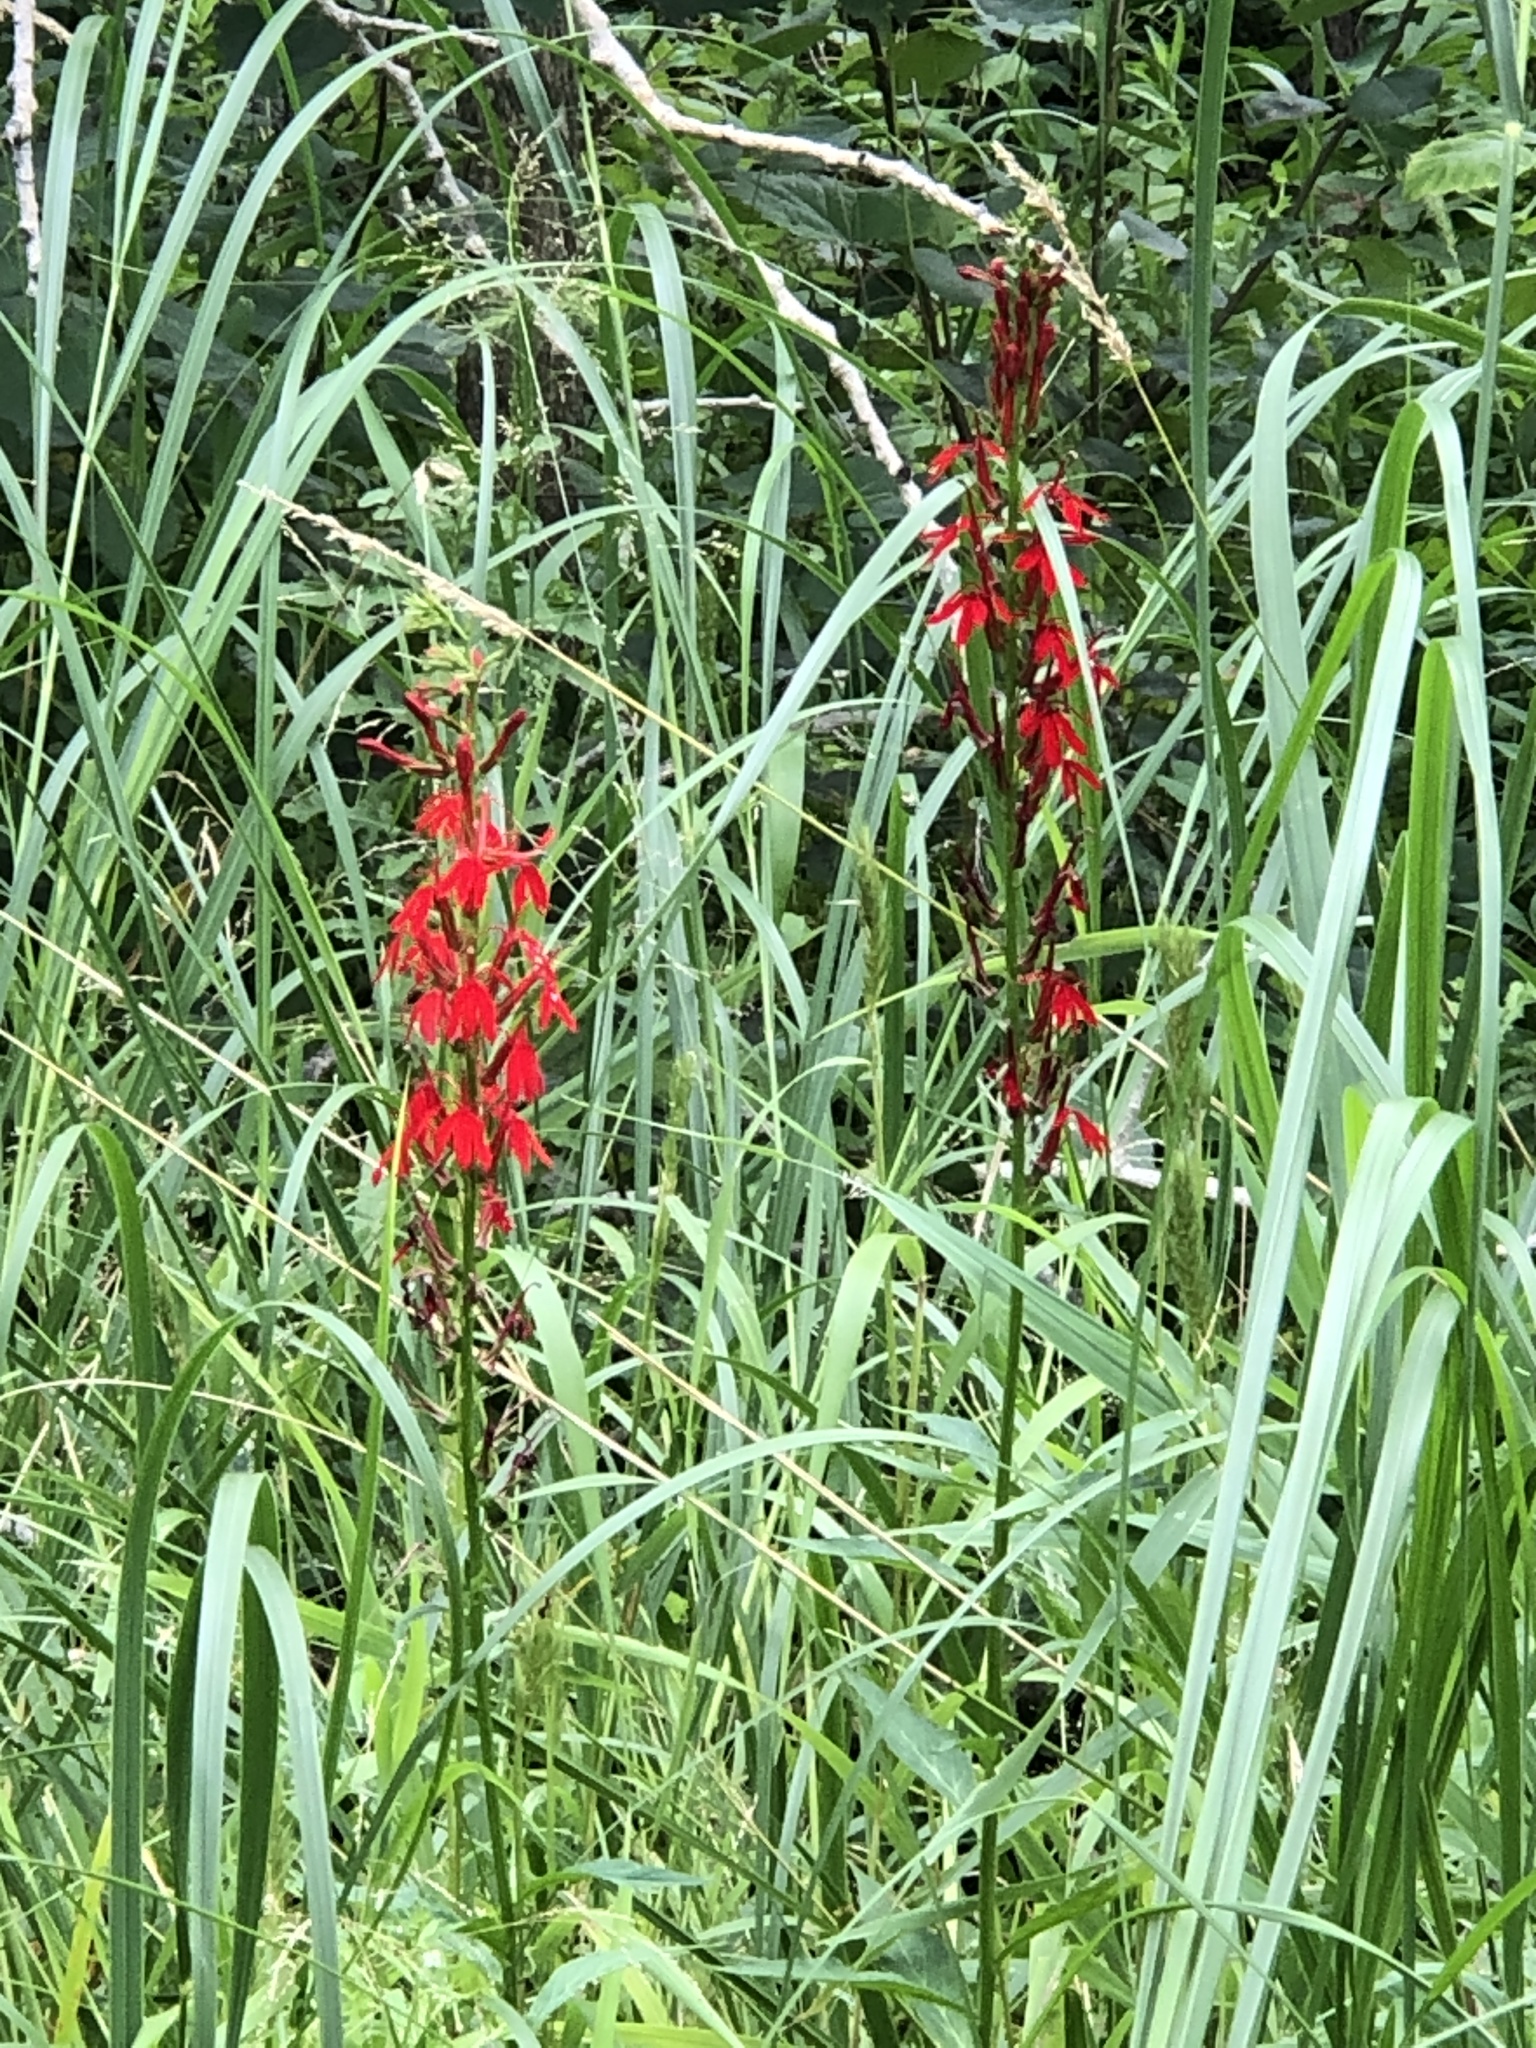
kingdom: Plantae
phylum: Tracheophyta
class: Magnoliopsida
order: Asterales
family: Campanulaceae
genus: Lobelia
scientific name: Lobelia cardinalis
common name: Cardinal flower
